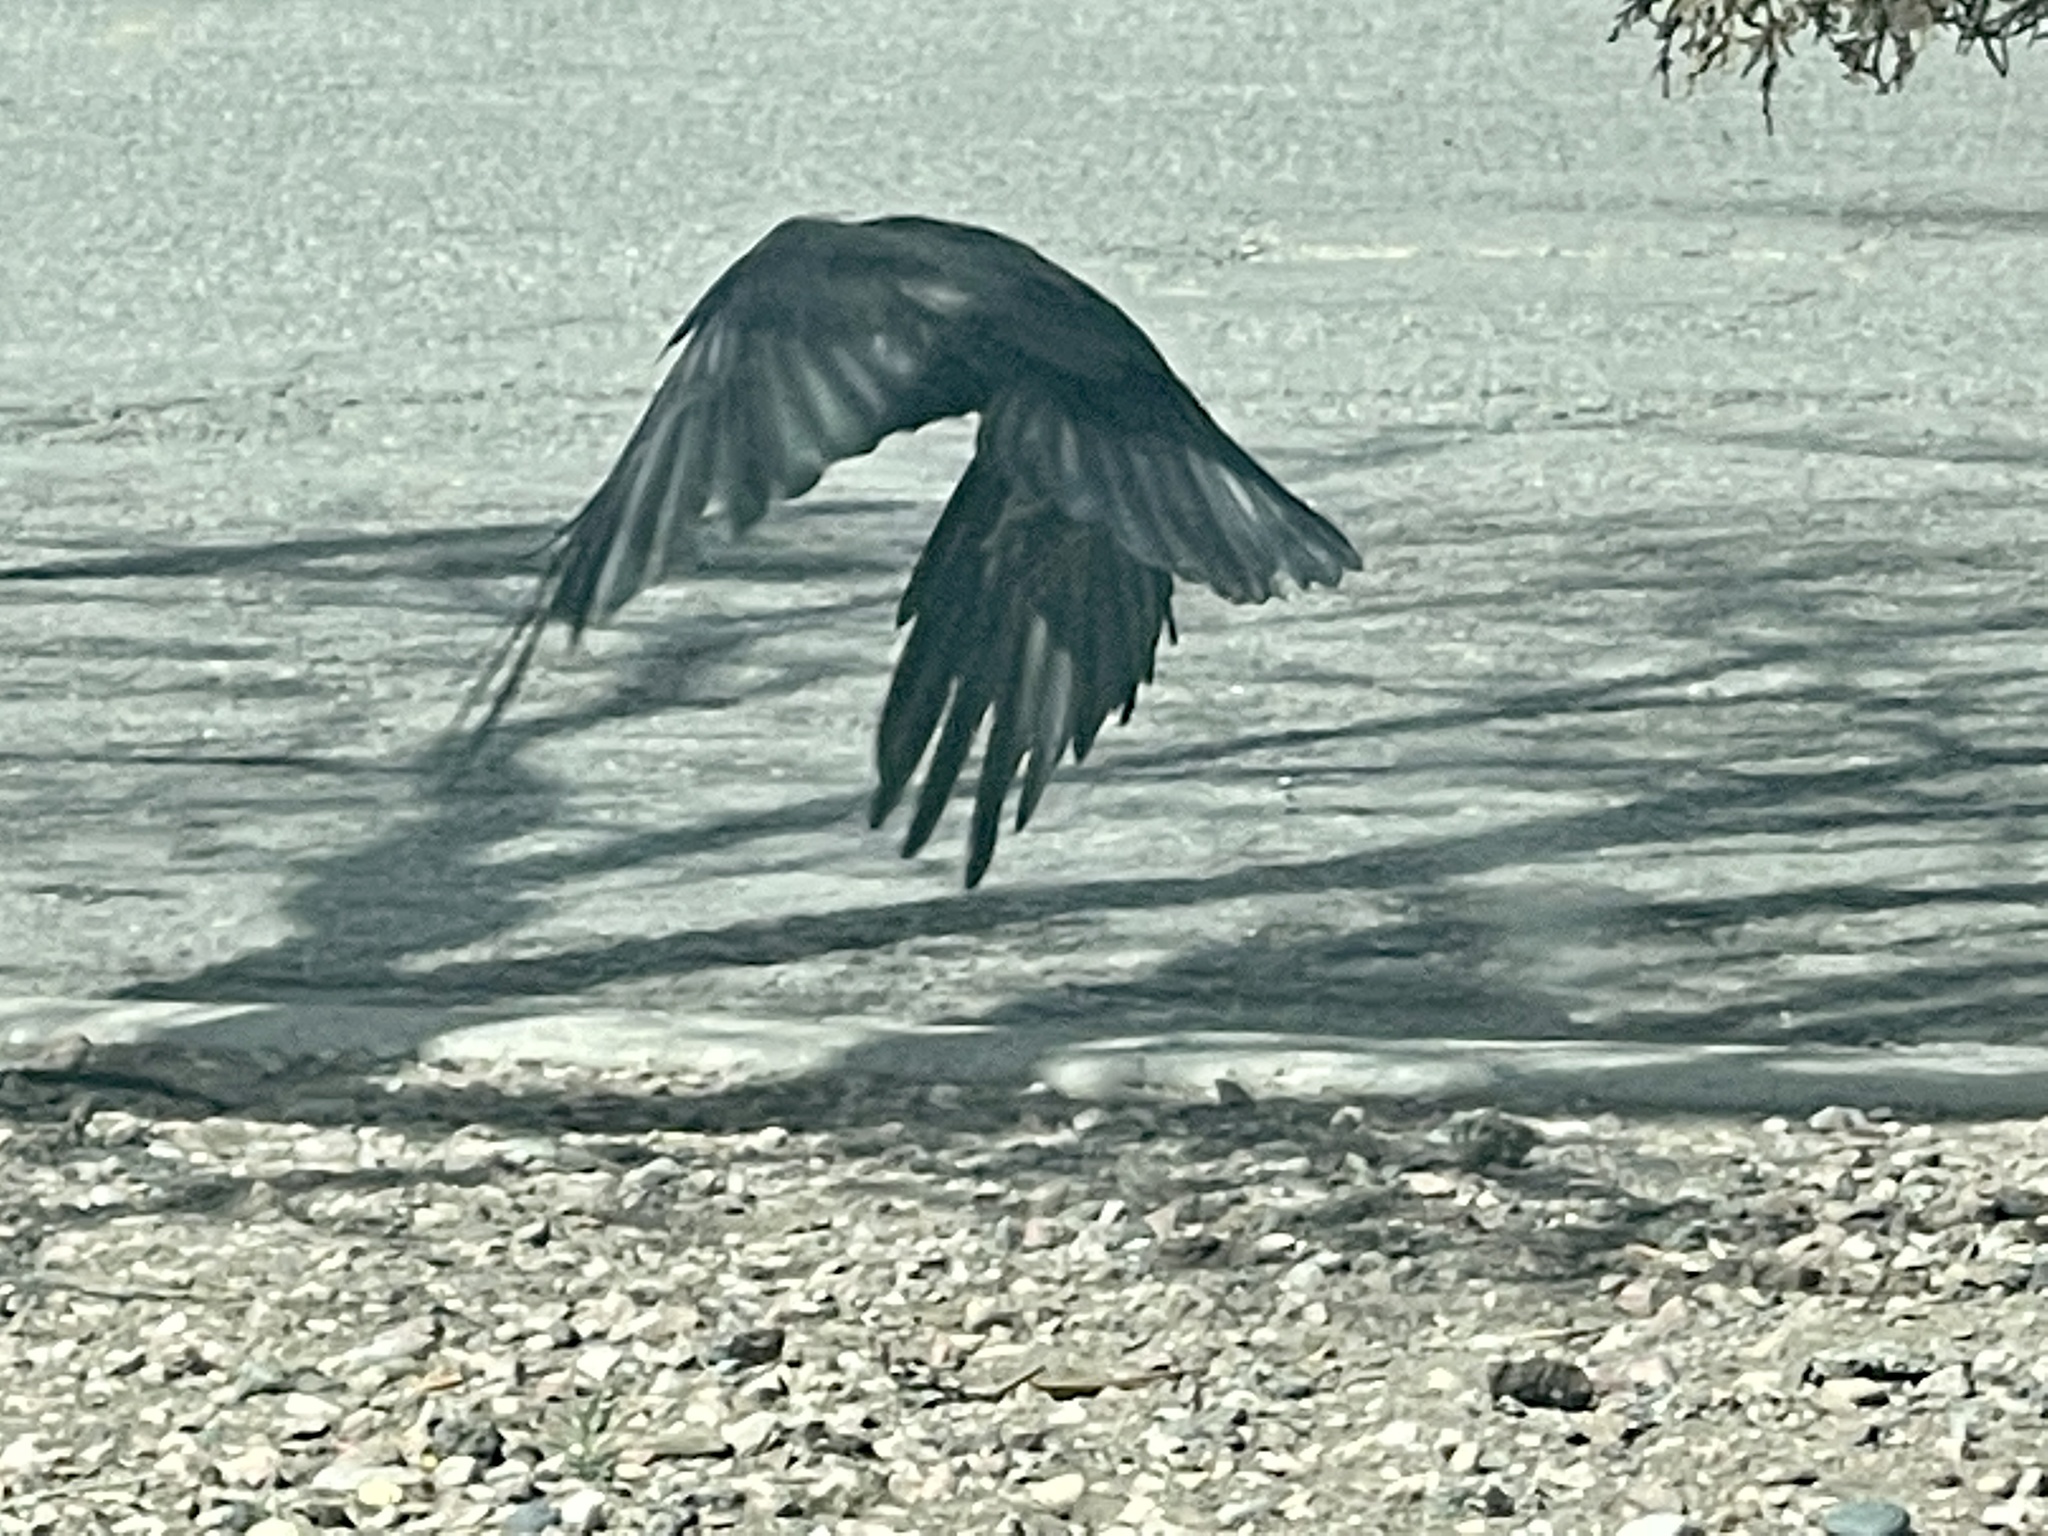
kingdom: Animalia
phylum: Chordata
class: Aves
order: Passeriformes
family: Corvidae
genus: Corvus
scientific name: Corvus corax
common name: Common raven
